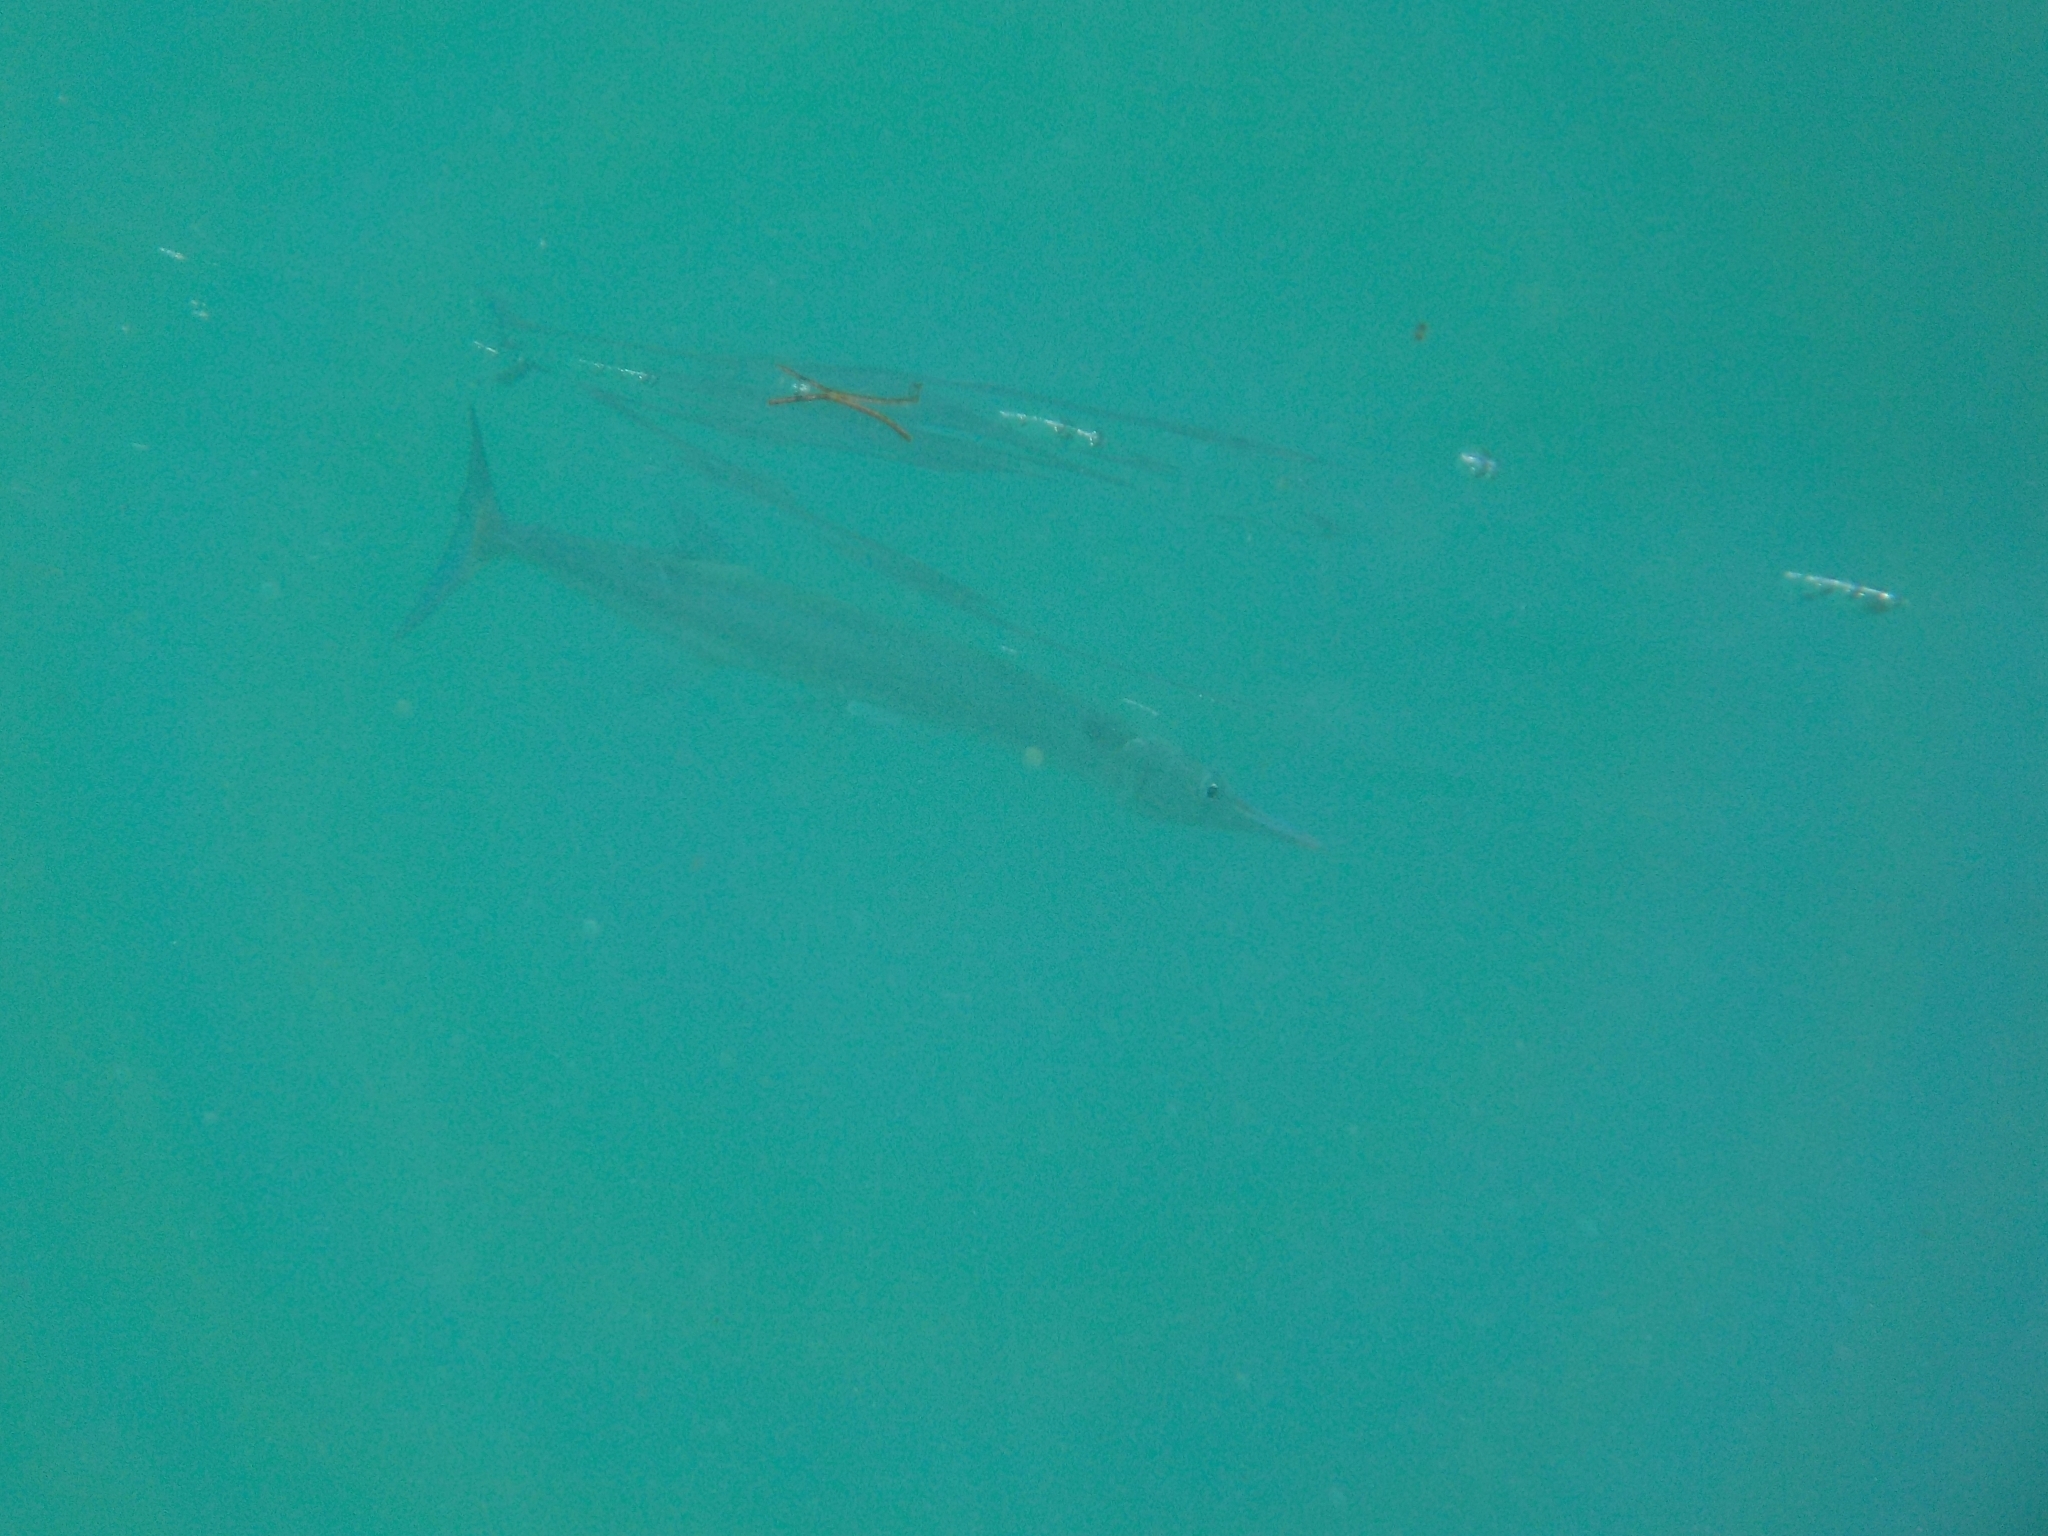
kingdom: Animalia
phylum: Chordata
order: Beloniformes
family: Belonidae
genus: Tylosurus
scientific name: Tylosurus crocodilus
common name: Houndfish
